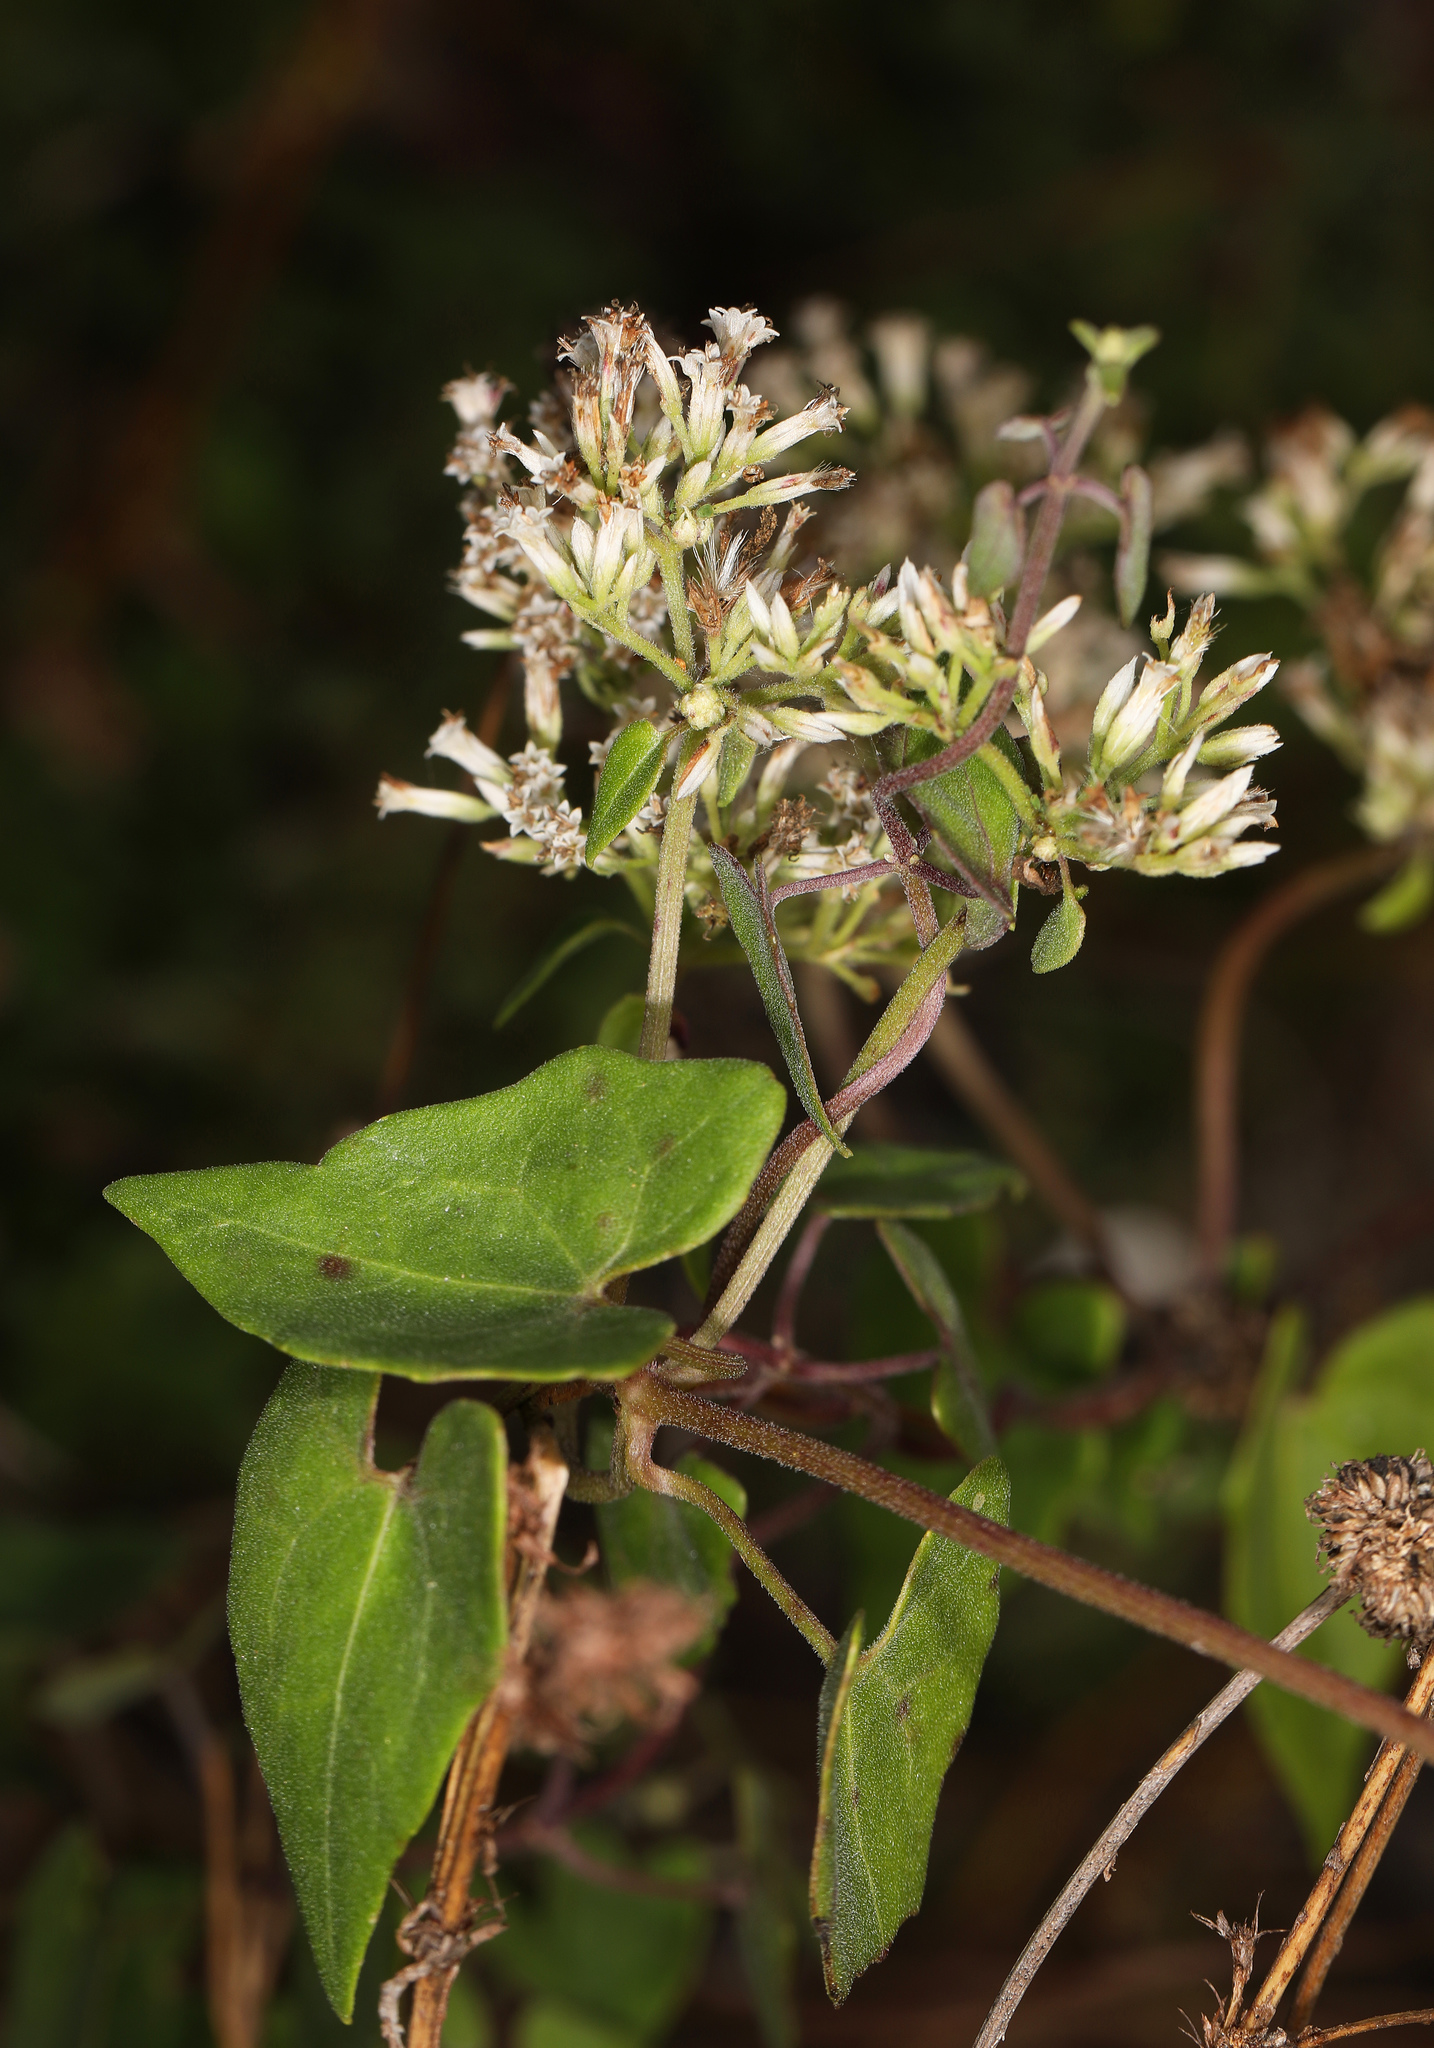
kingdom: Plantae
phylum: Tracheophyta
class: Magnoliopsida
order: Asterales
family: Asteraceae
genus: Mikania
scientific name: Mikania scandens
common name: Climbing hempvine
